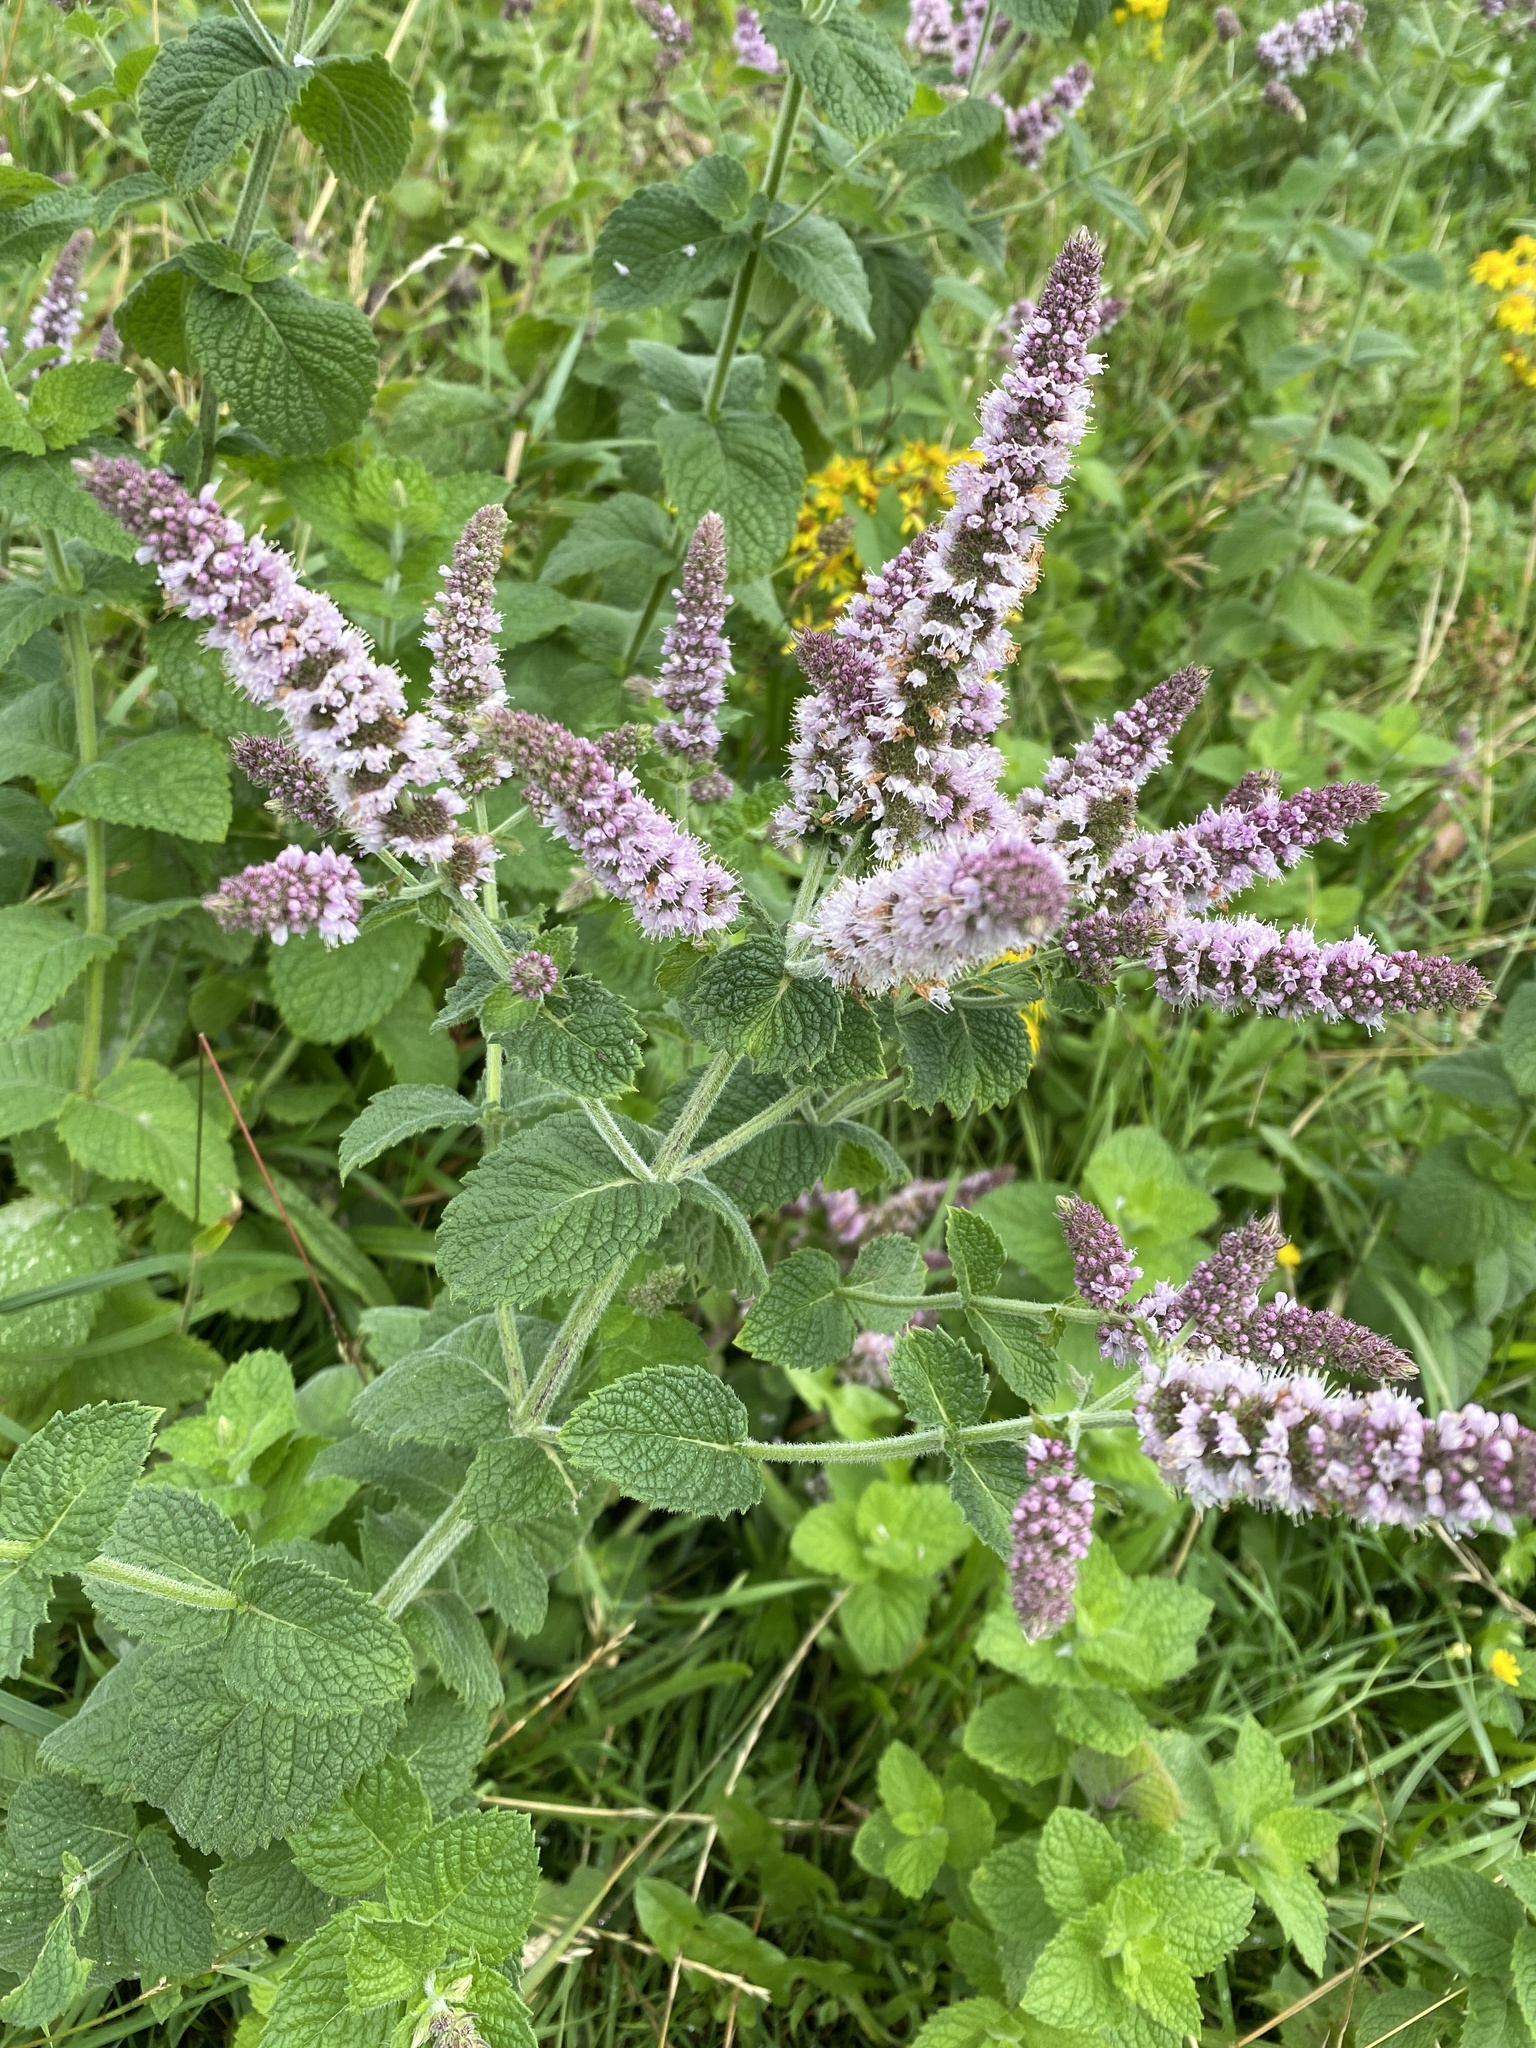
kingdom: Plantae
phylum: Tracheophyta
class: Magnoliopsida
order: Lamiales
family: Lamiaceae
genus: Mentha
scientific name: Mentha villosa
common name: Apple mint
